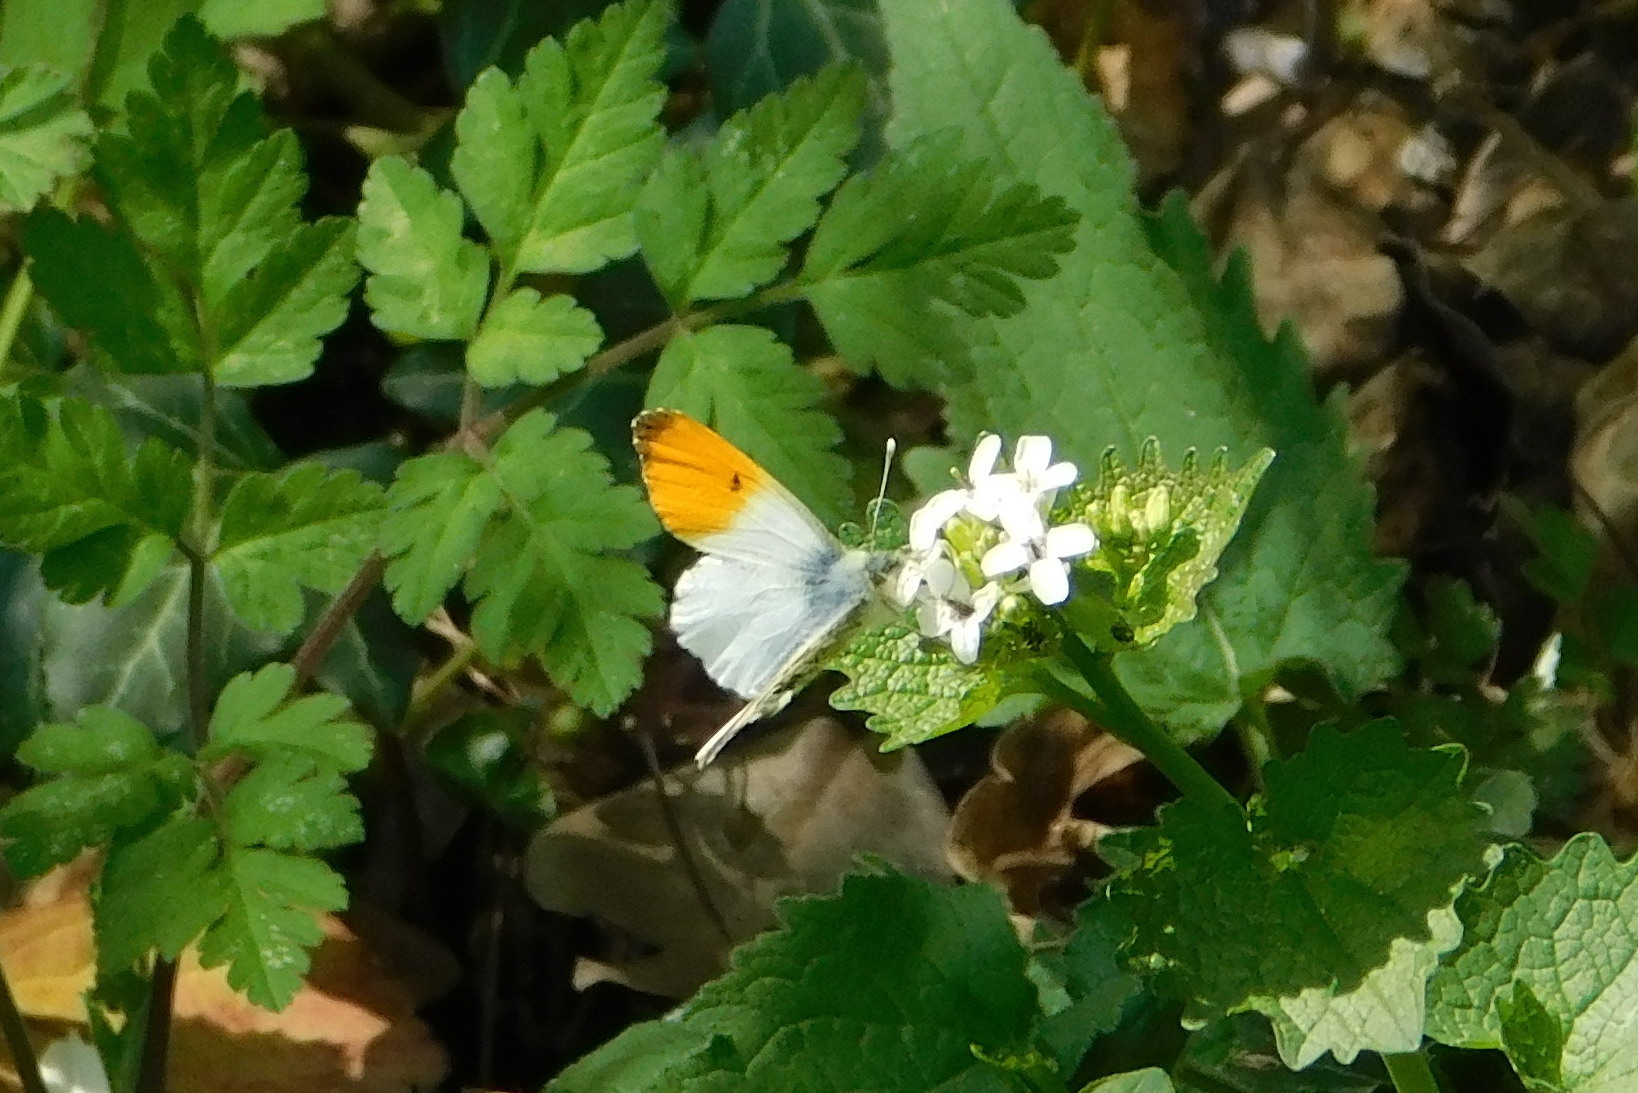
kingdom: Animalia
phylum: Arthropoda
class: Insecta
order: Lepidoptera
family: Pieridae
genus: Anthocharis
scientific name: Anthocharis cardamines
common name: Orange-tip
